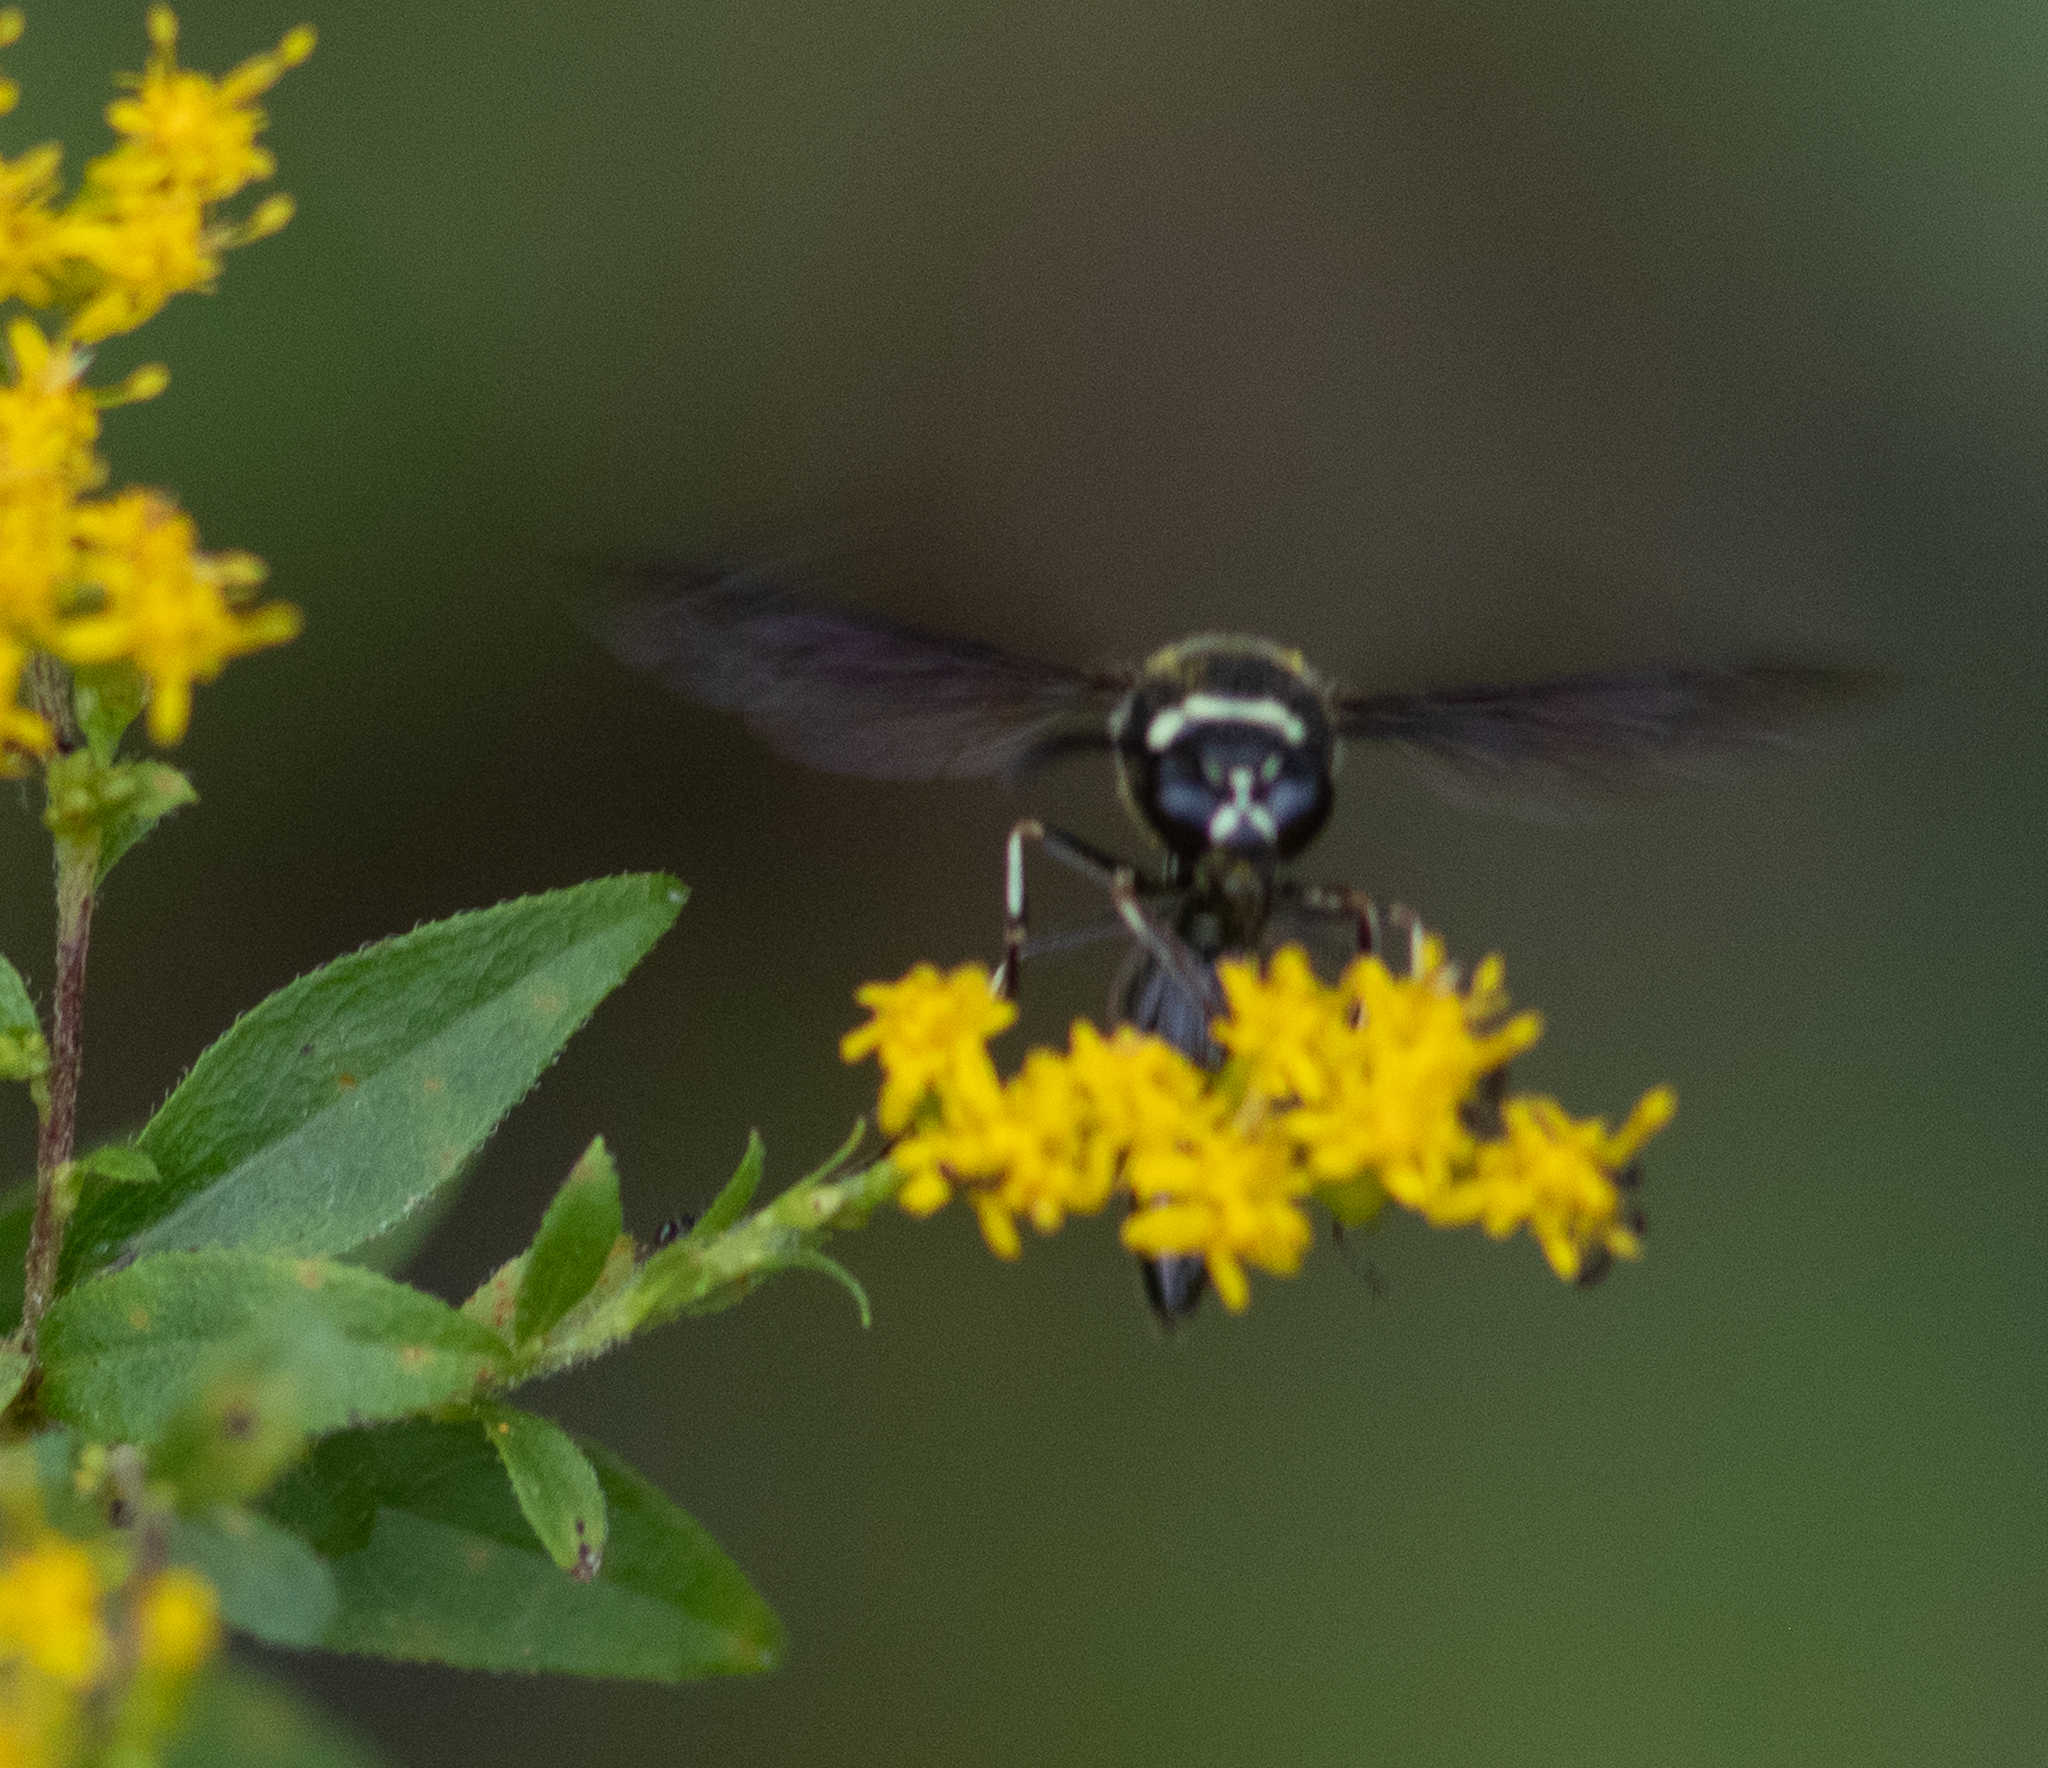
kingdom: Animalia
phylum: Arthropoda
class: Insecta
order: Hymenoptera
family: Vespidae
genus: Eumenes
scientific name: Eumenes fraternus
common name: Fraternal potter wasp
